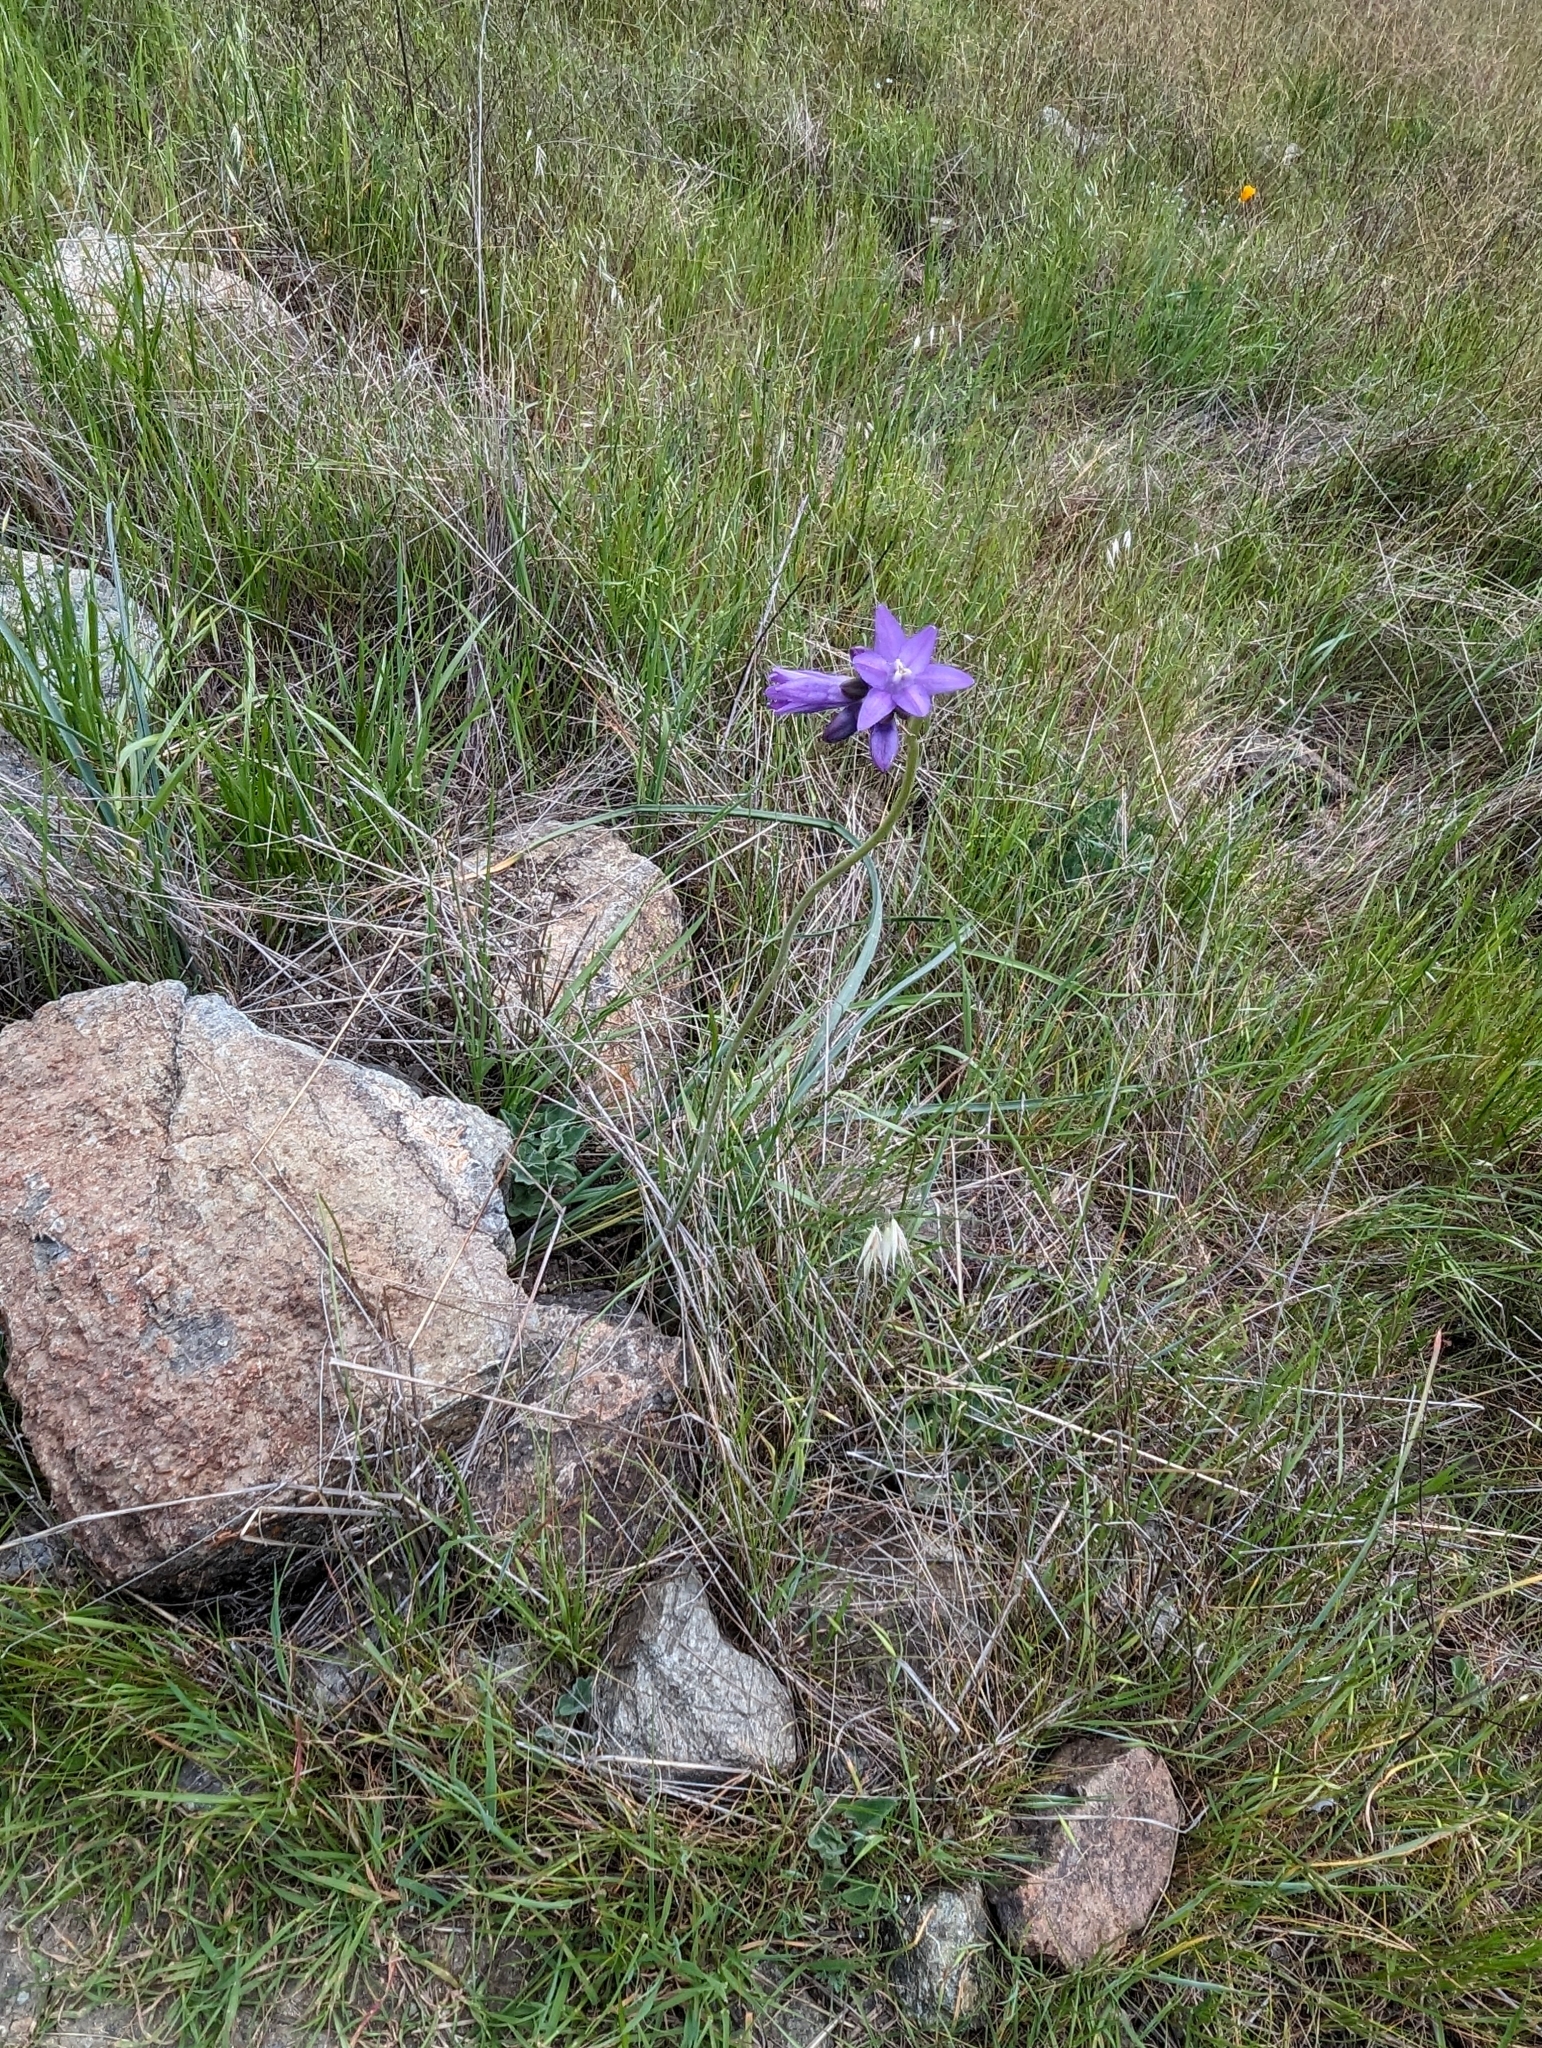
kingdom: Plantae
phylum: Tracheophyta
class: Liliopsida
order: Asparagales
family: Asparagaceae
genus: Dipterostemon
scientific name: Dipterostemon capitatus
